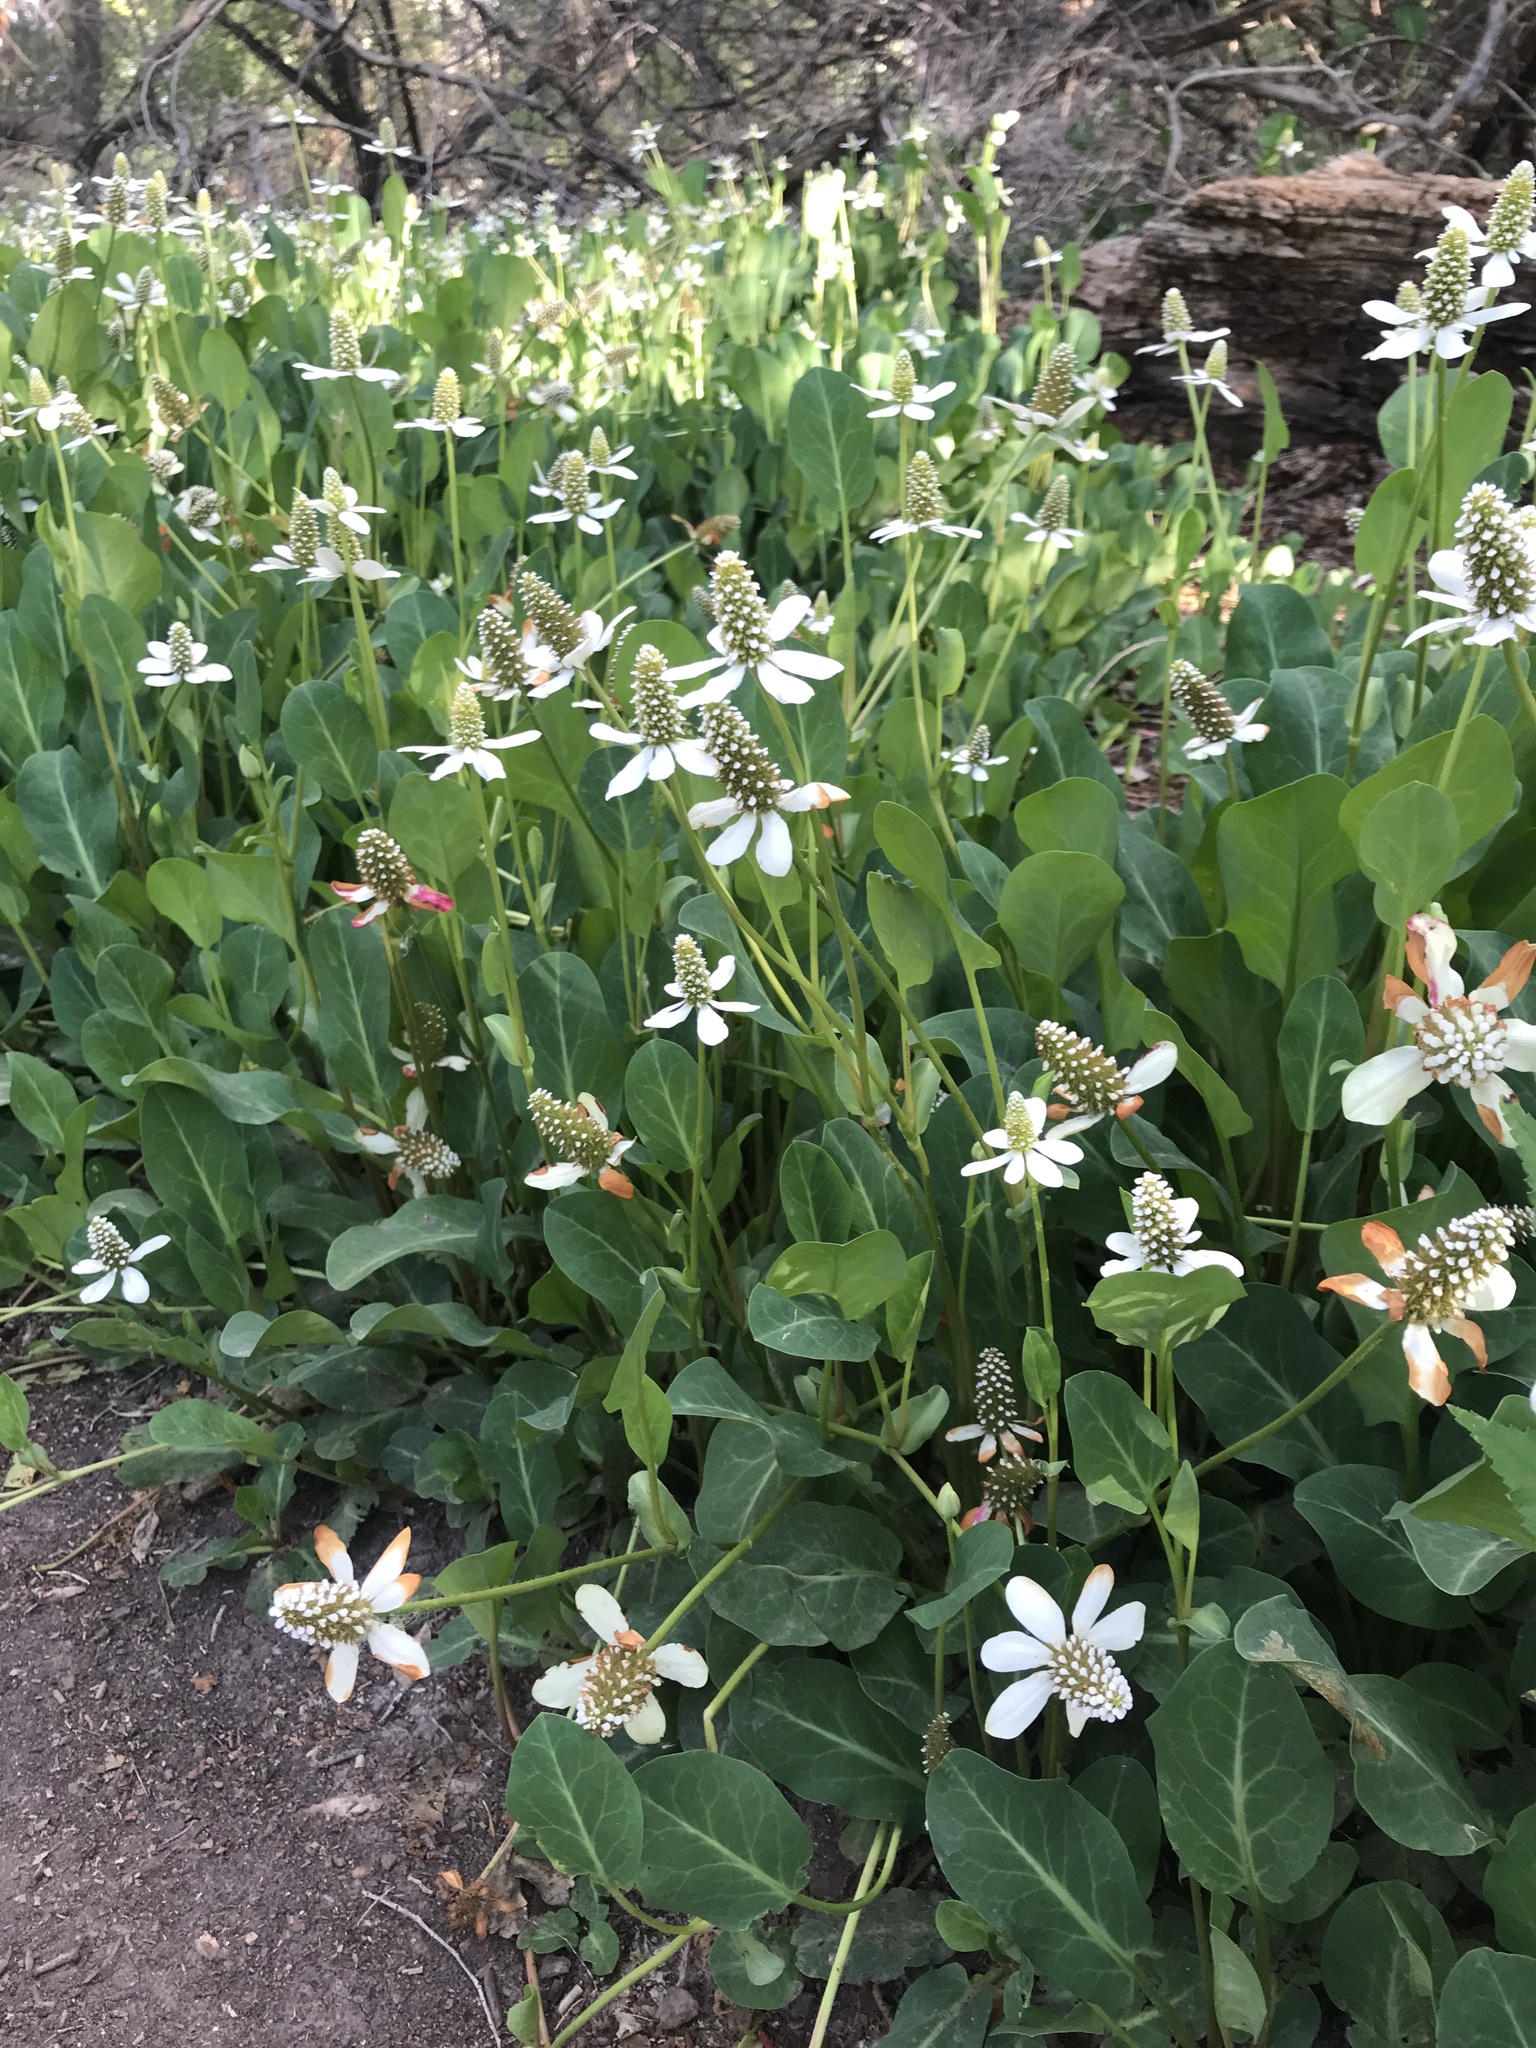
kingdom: Plantae
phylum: Tracheophyta
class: Magnoliopsida
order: Piperales
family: Saururaceae
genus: Anemopsis
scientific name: Anemopsis californica
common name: Apache-beads
